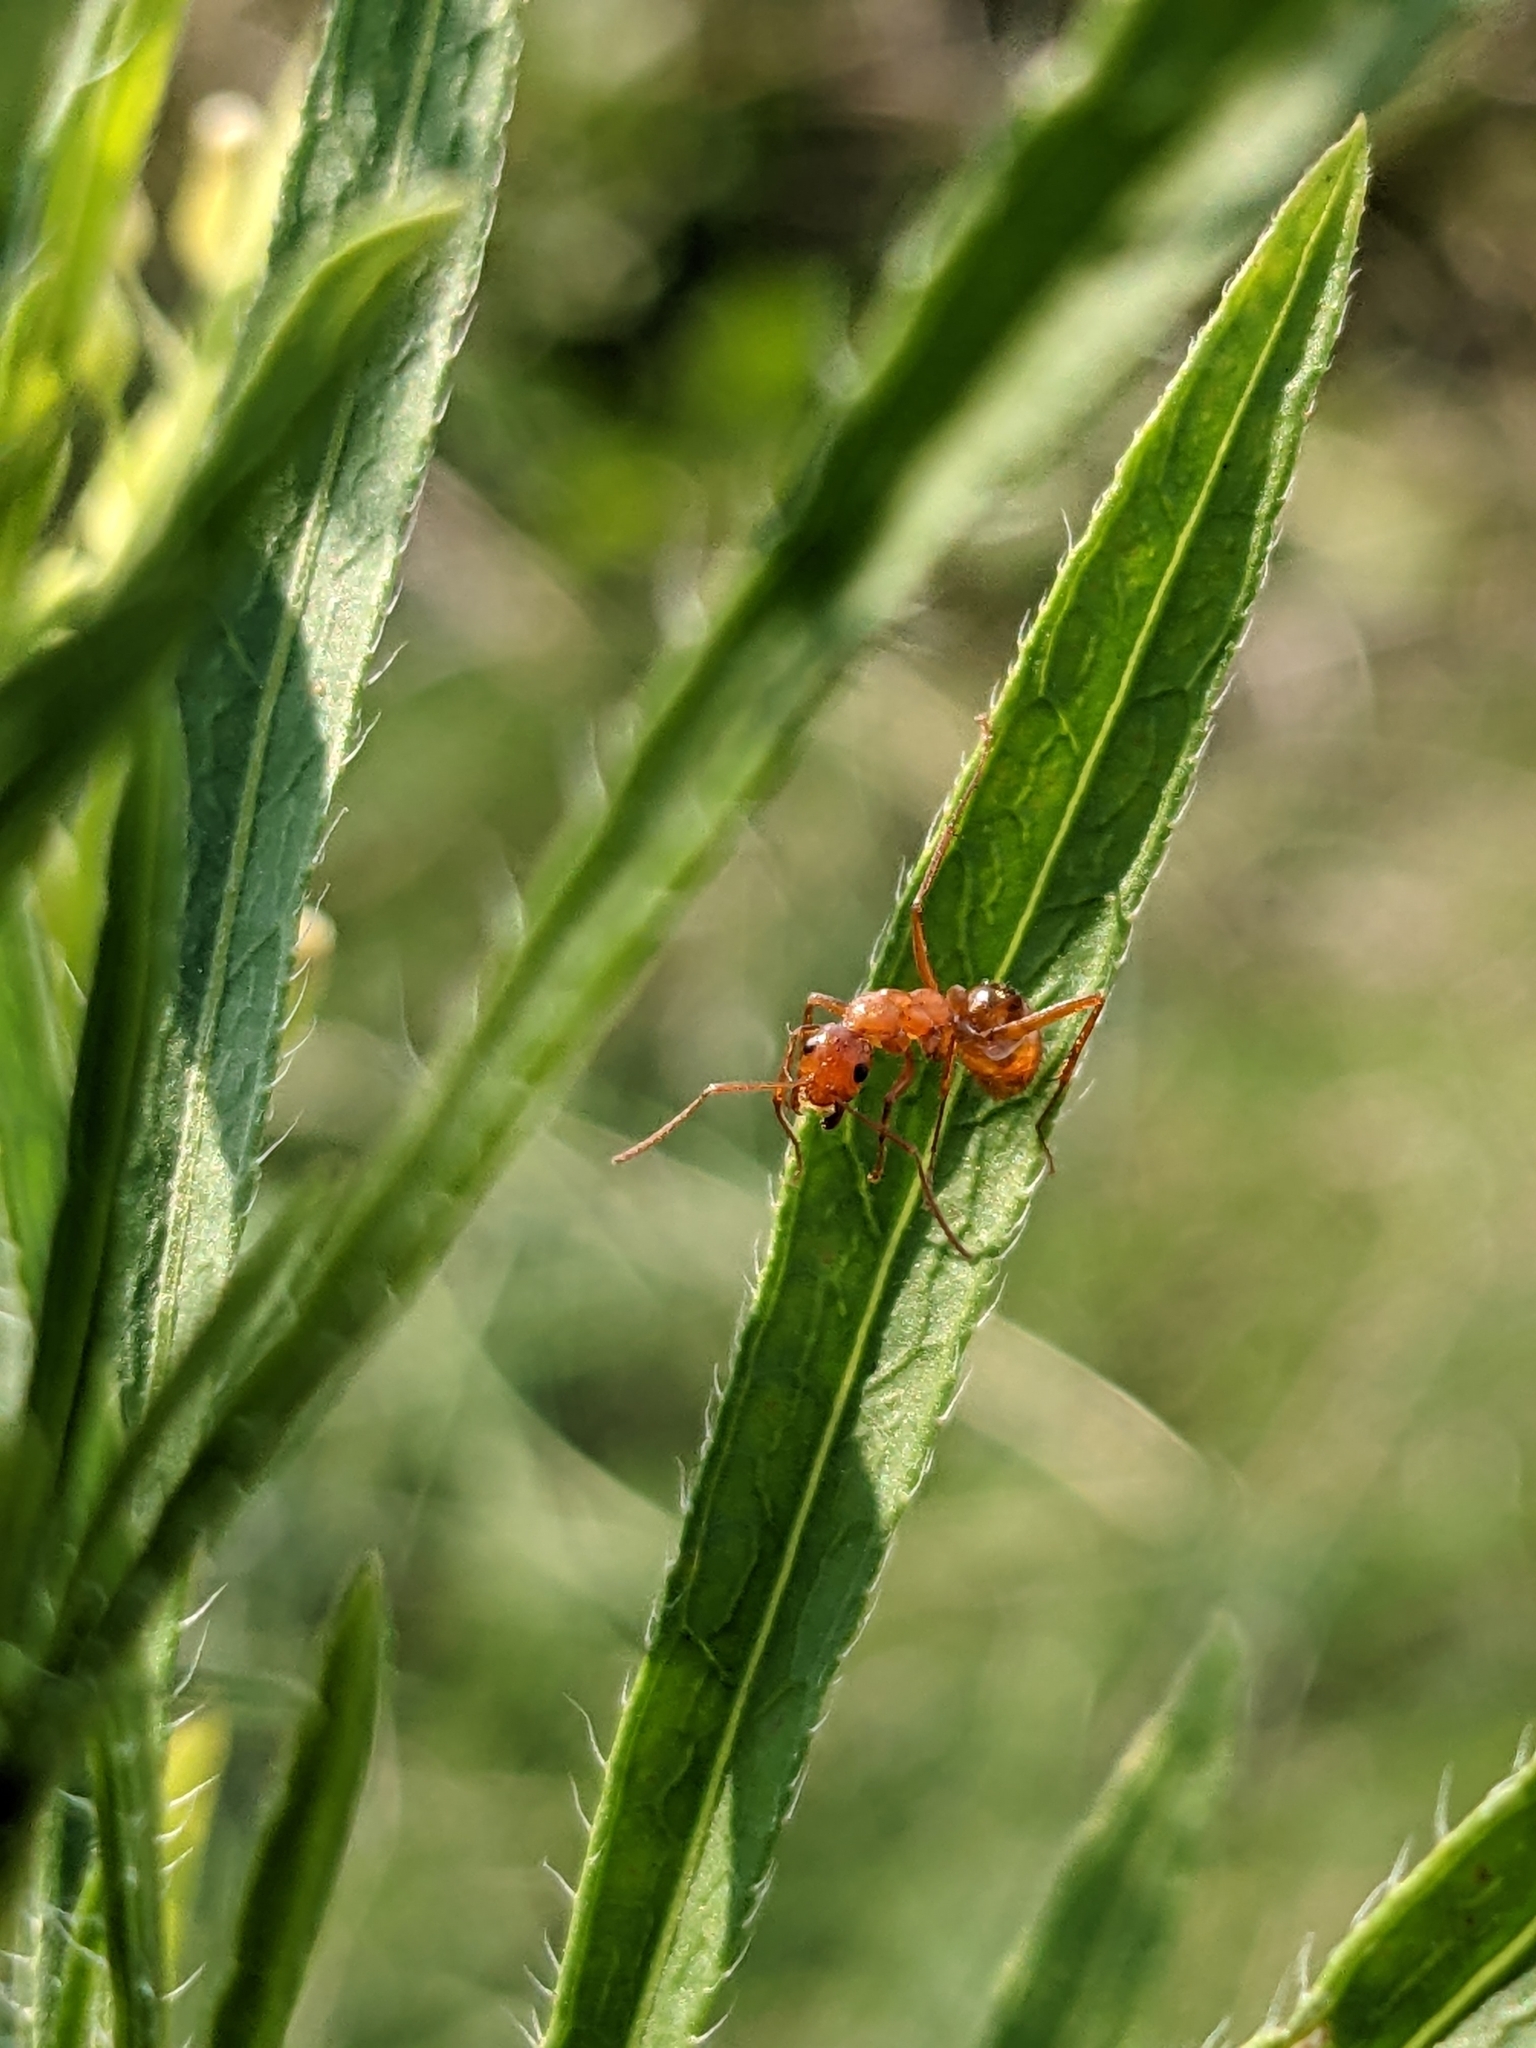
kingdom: Animalia
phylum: Arthropoda
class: Insecta
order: Hymenoptera
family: Formicidae
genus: Formica
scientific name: Formica
